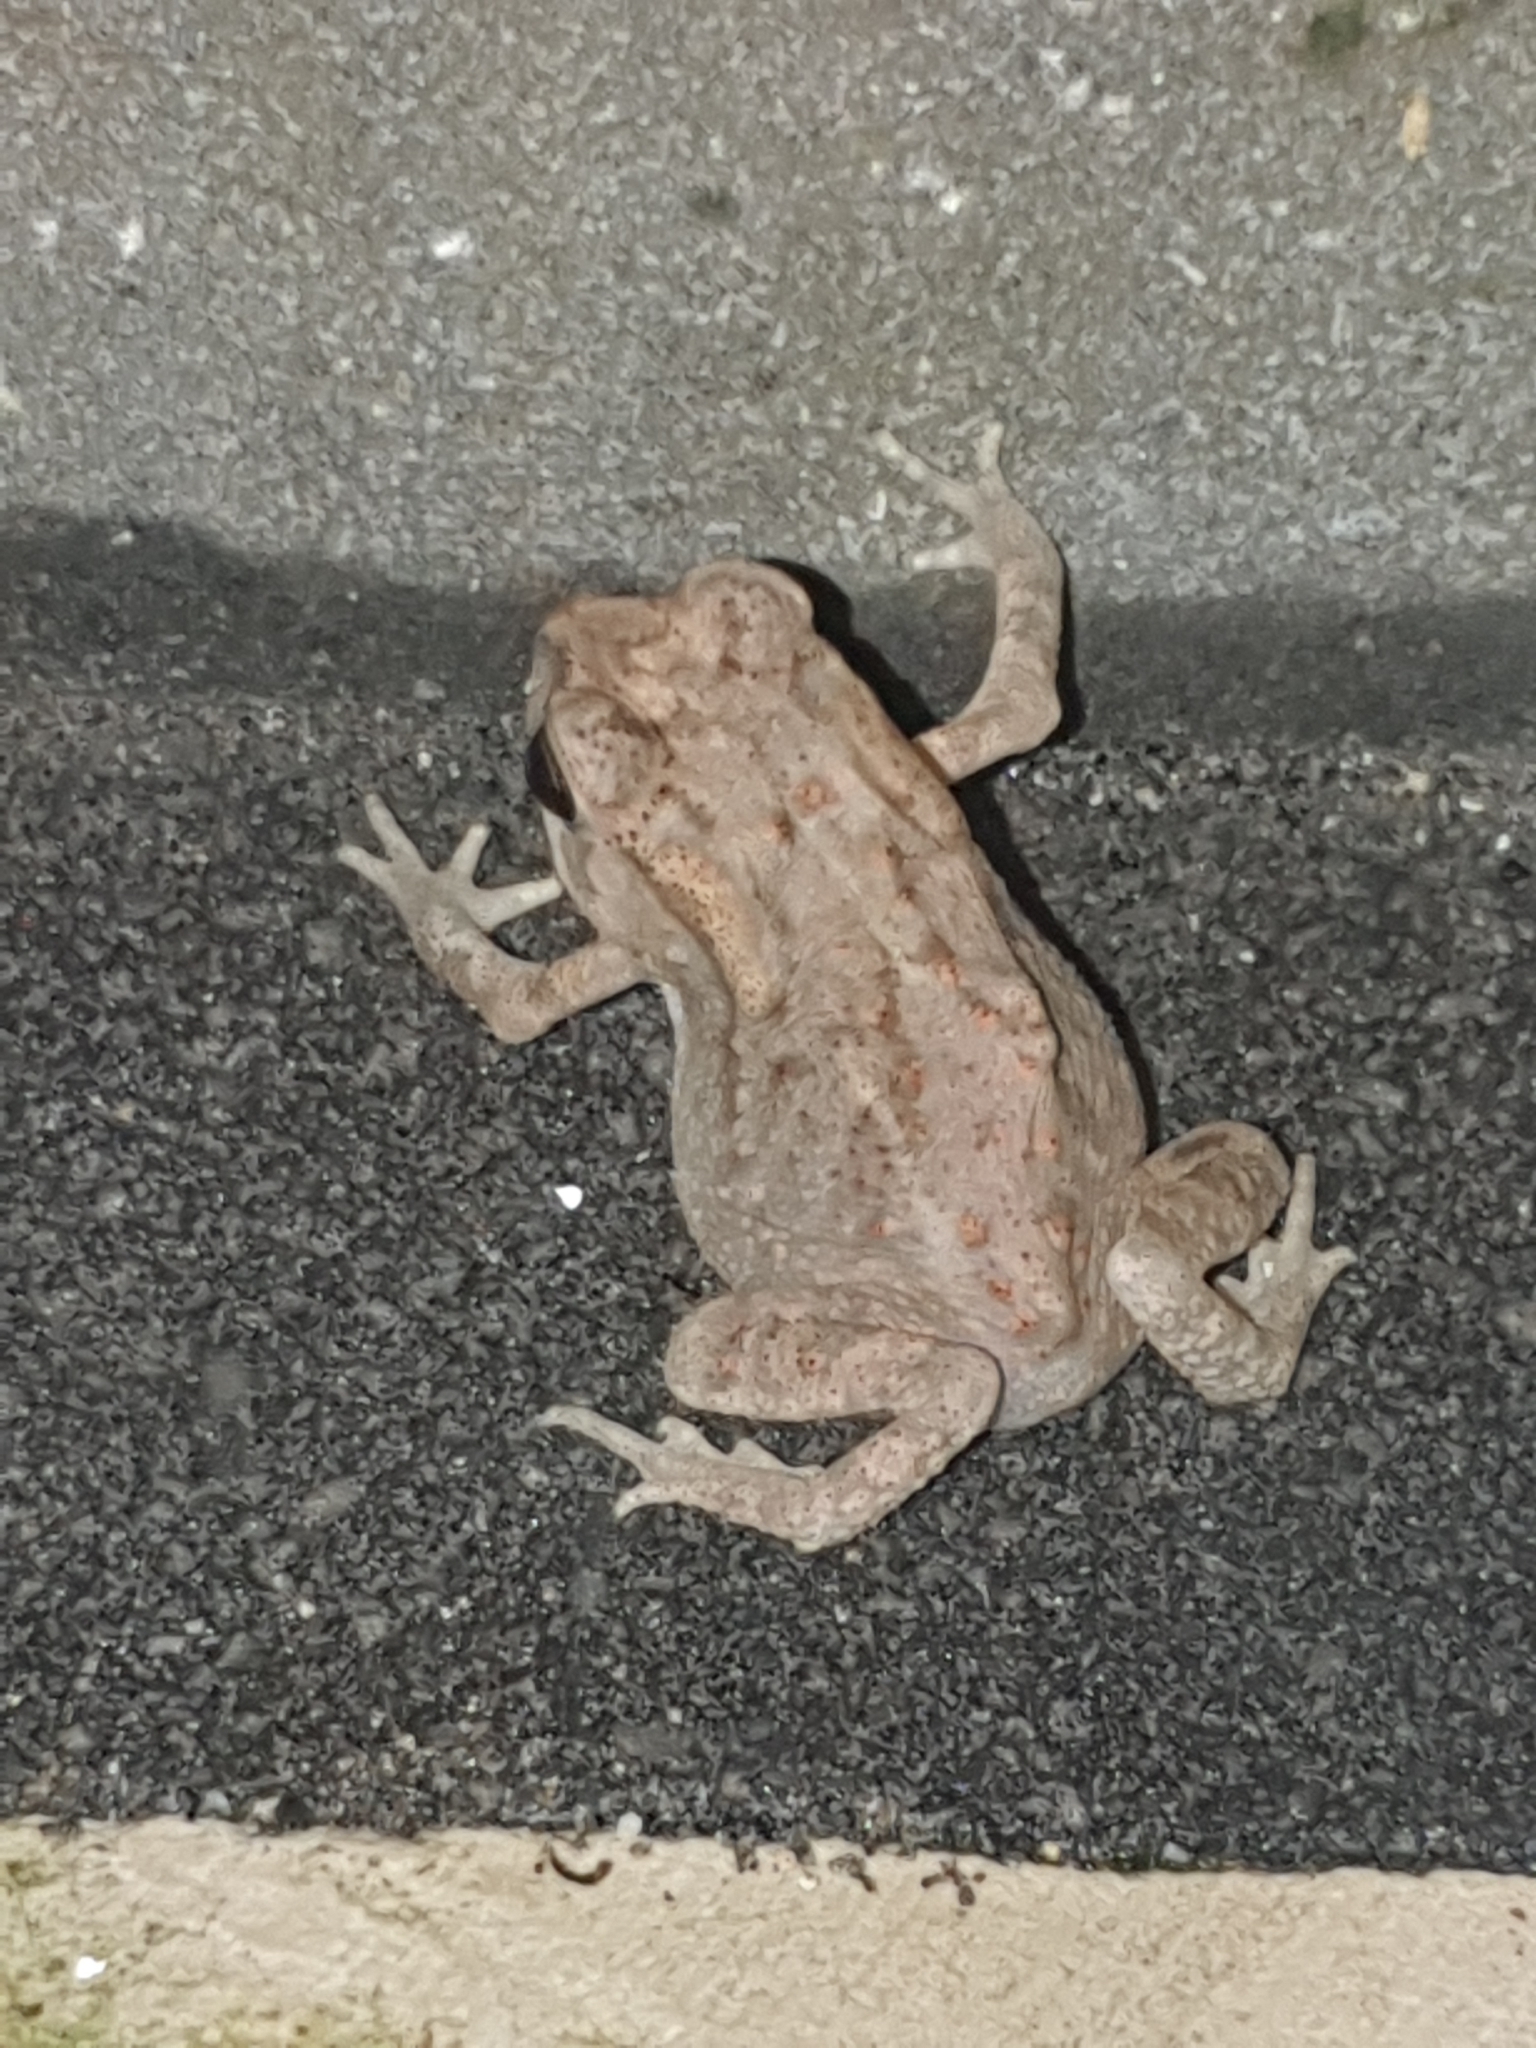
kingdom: Animalia
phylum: Chordata
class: Amphibia
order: Anura
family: Bufonidae
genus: Duttaphrynus
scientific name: Duttaphrynus melanostictus
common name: Common sunda toad
